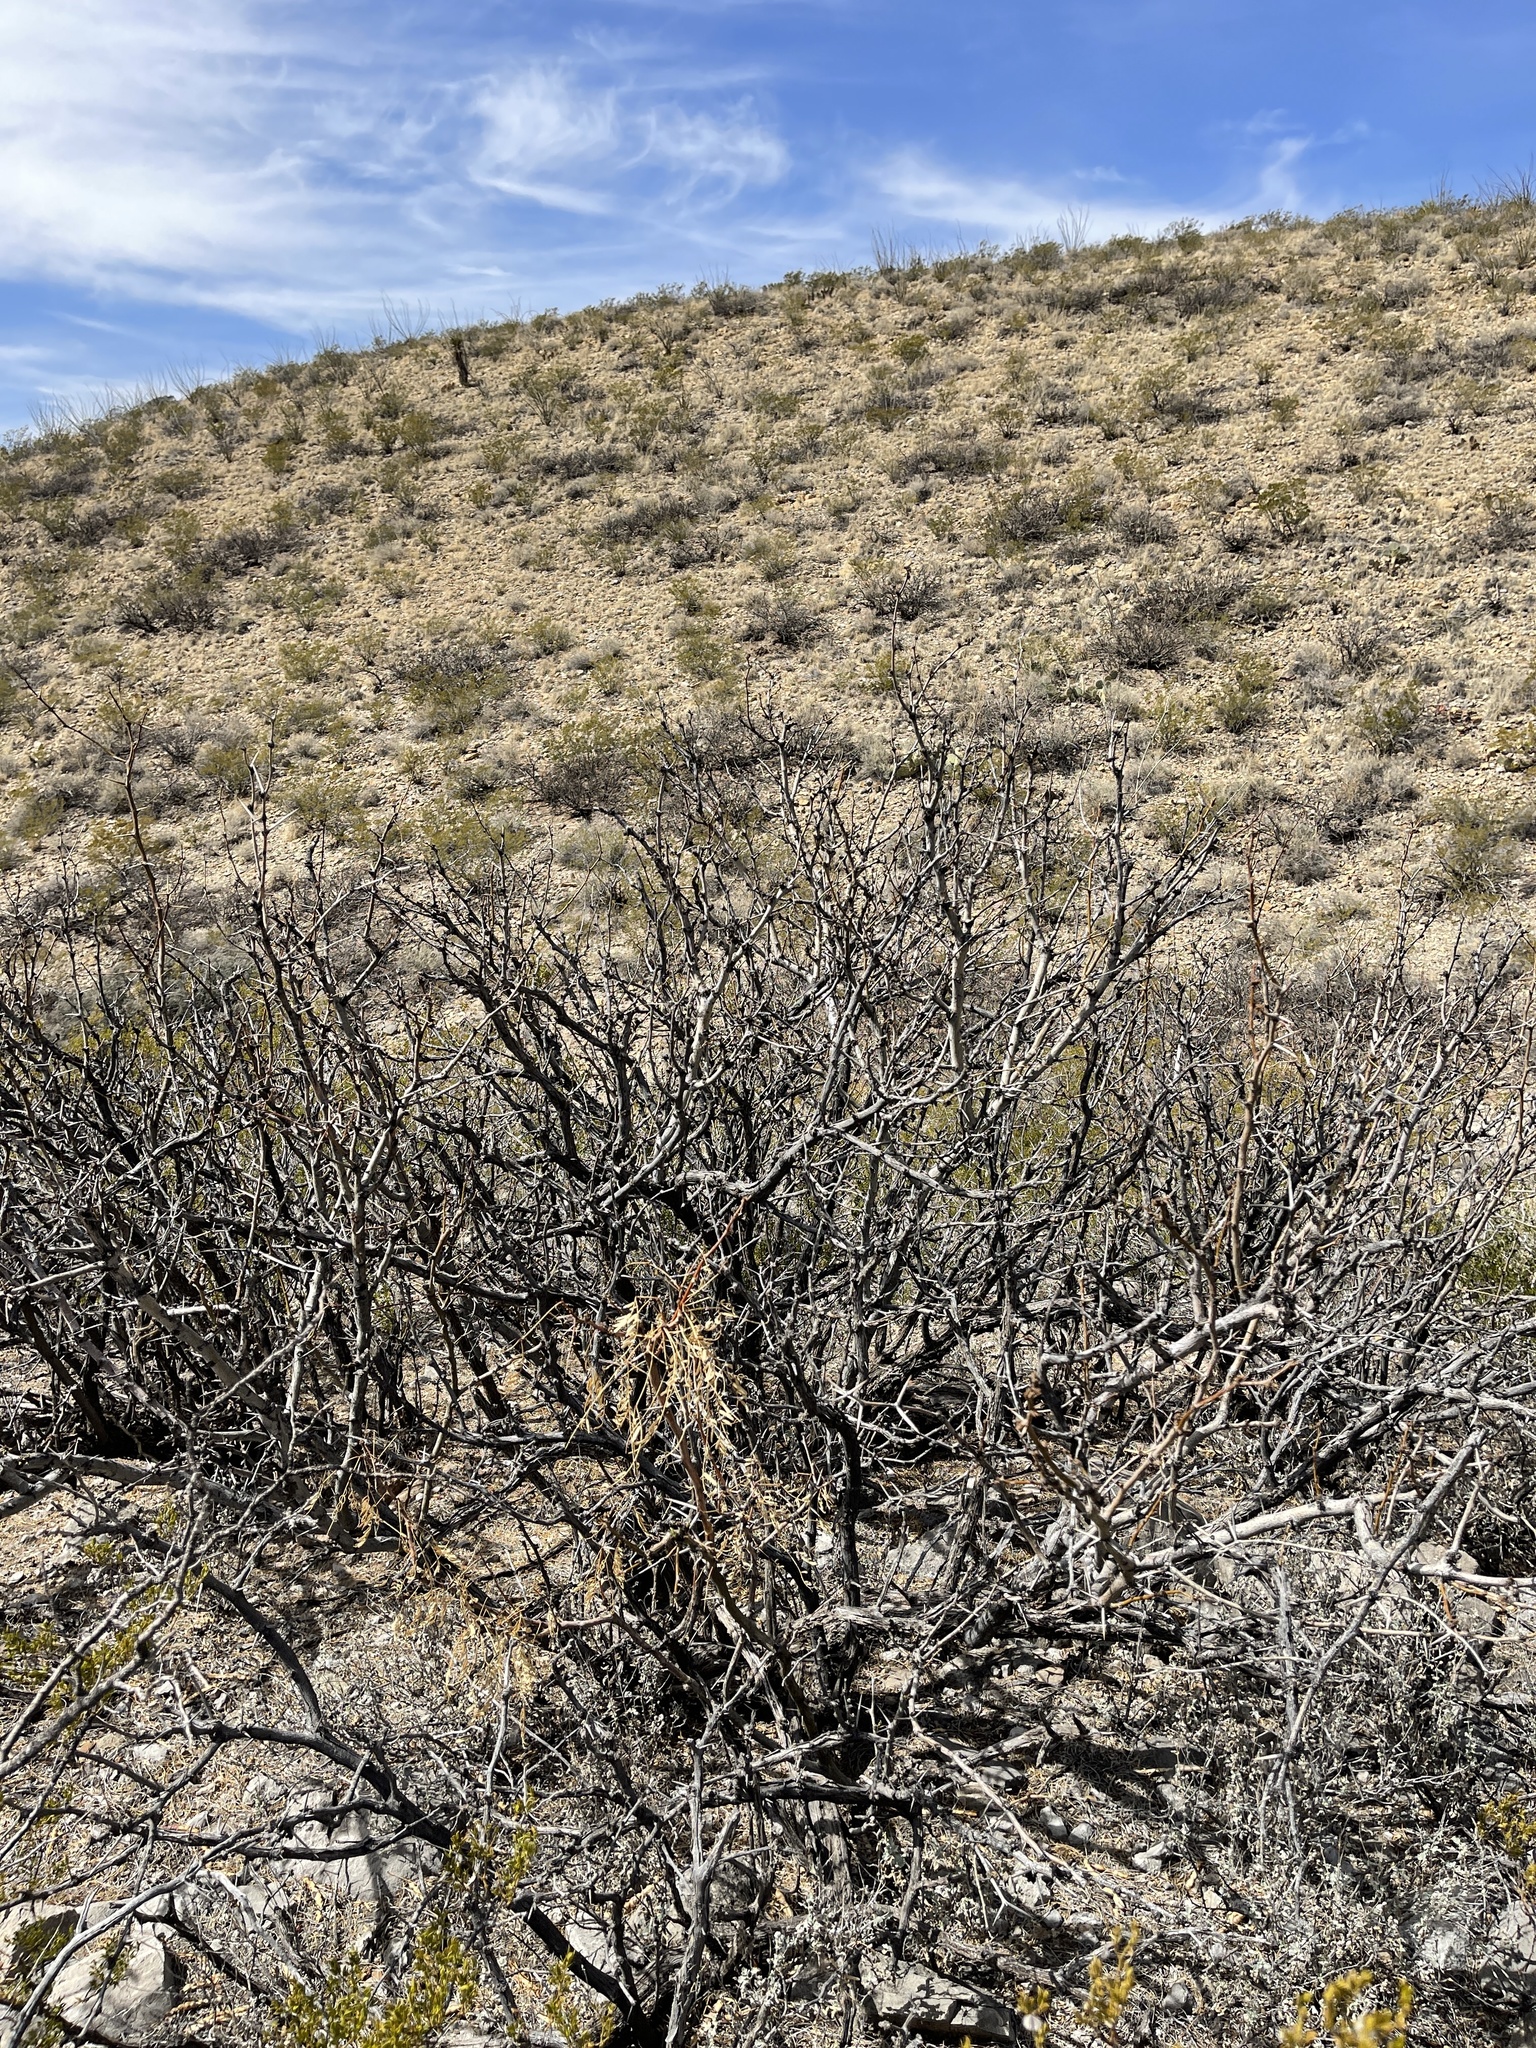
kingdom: Plantae
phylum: Tracheophyta
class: Magnoliopsida
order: Fabales
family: Fabaceae
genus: Prosopis
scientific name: Prosopis glandulosa
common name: Honey mesquite
